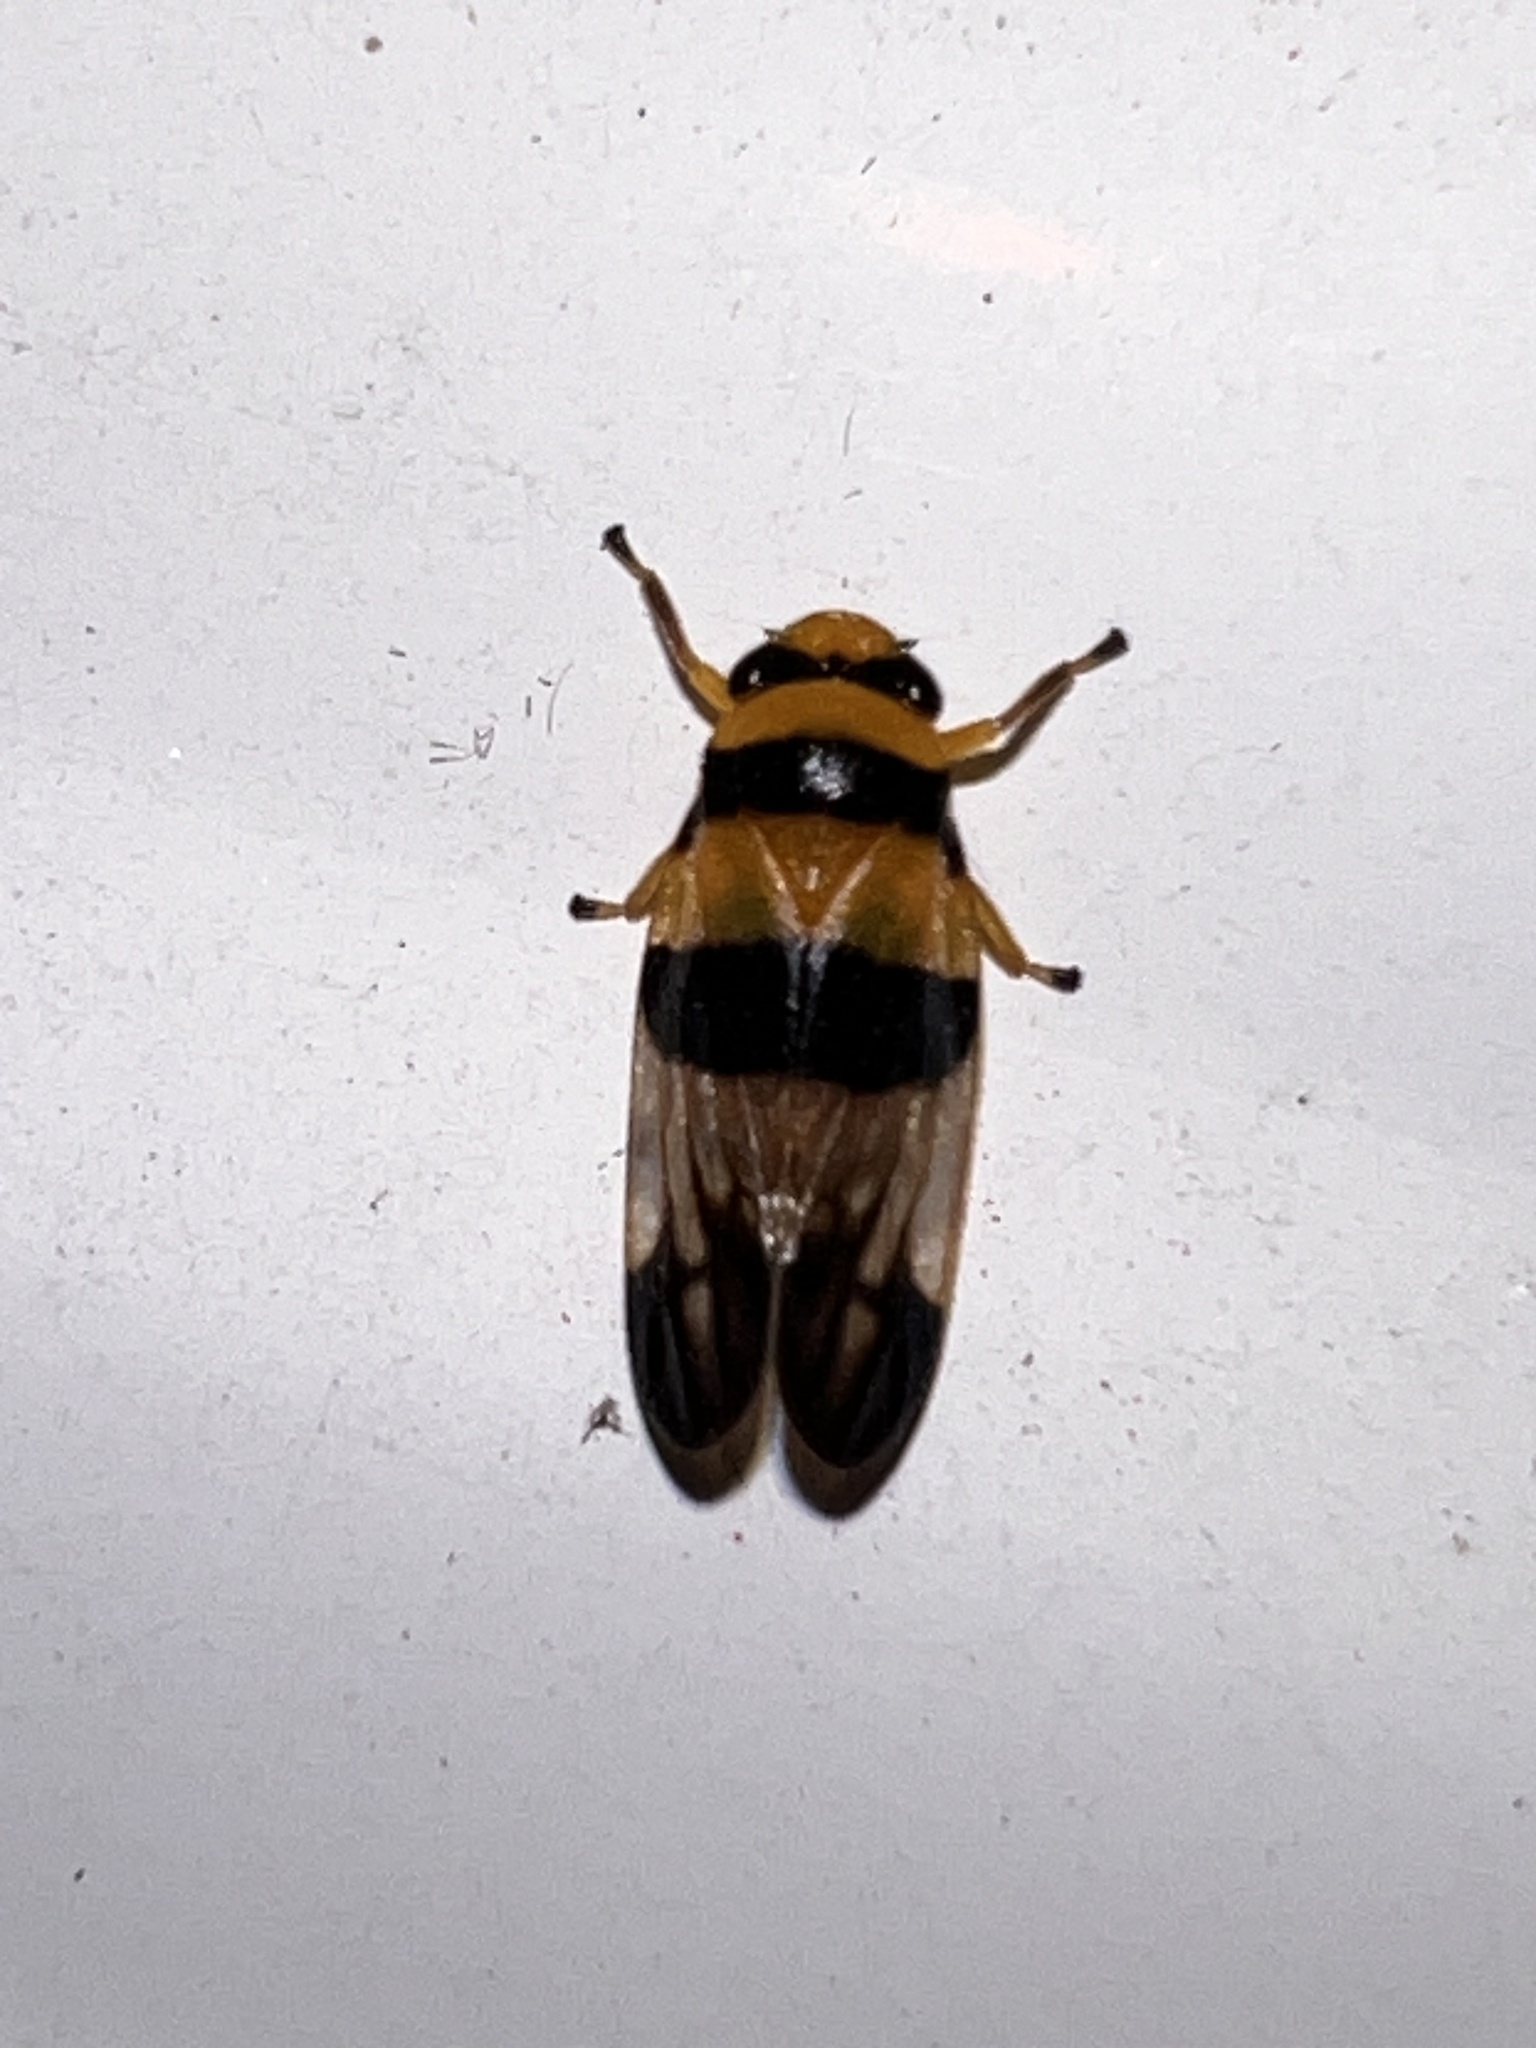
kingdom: Animalia
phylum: Arthropoda
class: Insecta
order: Hemiptera
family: Cercopidae
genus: Aufidus
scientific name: Aufidus trifasciatus
